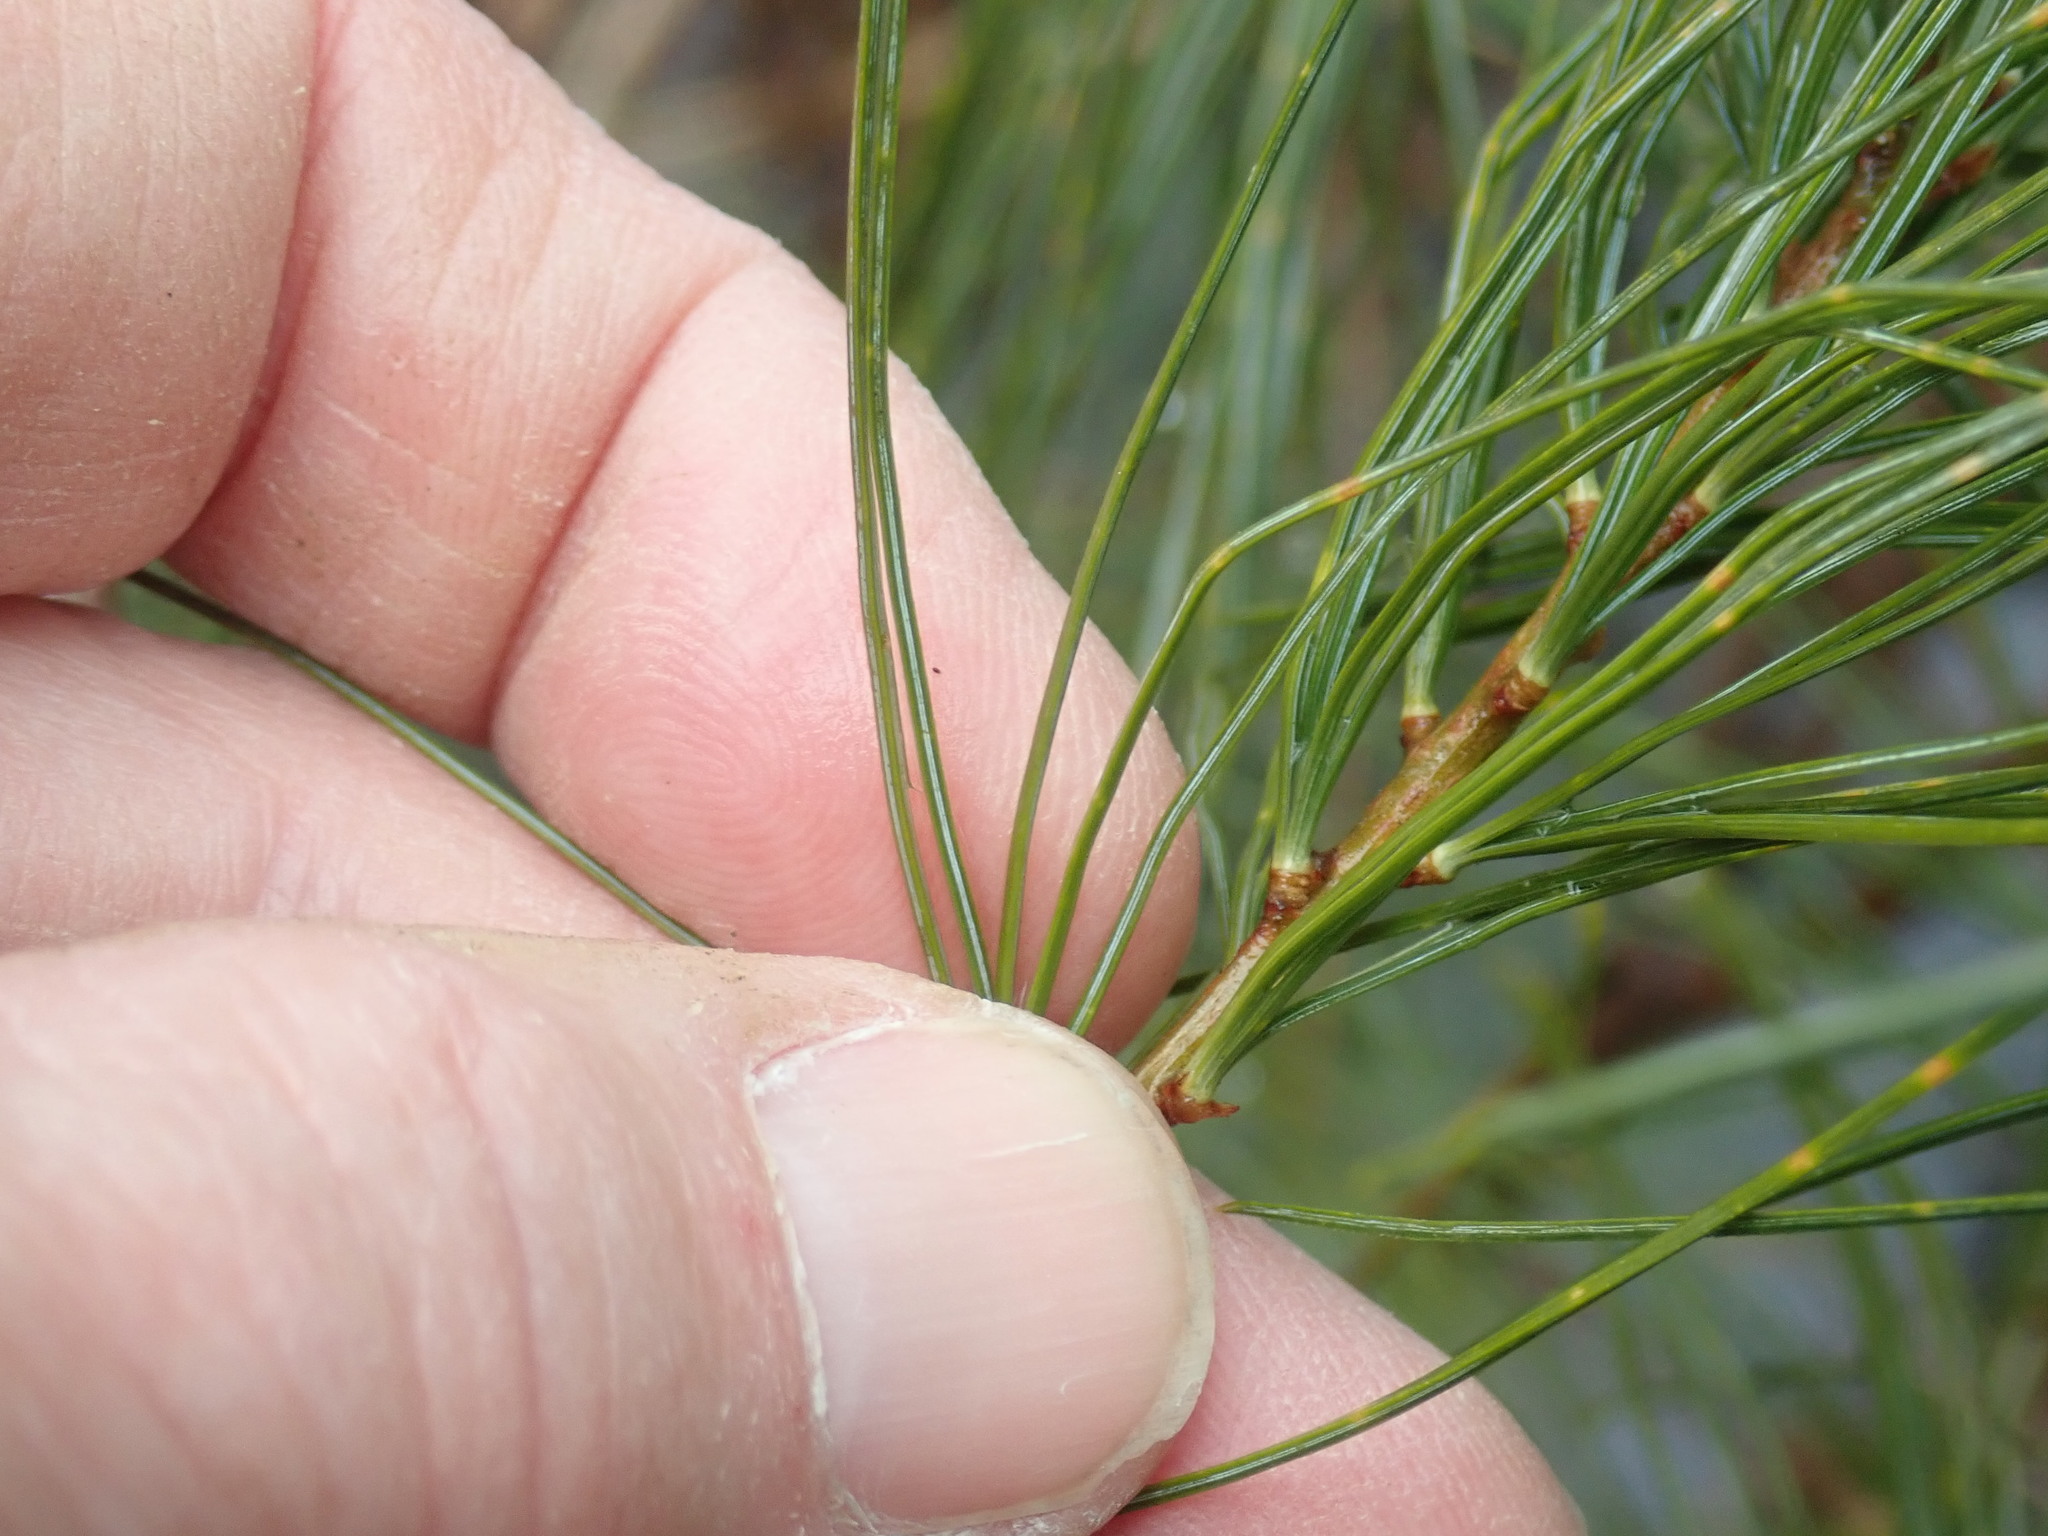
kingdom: Plantae
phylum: Tracheophyta
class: Pinopsida
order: Pinales
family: Pinaceae
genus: Pinus
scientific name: Pinus strobus
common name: Weymouth pine
